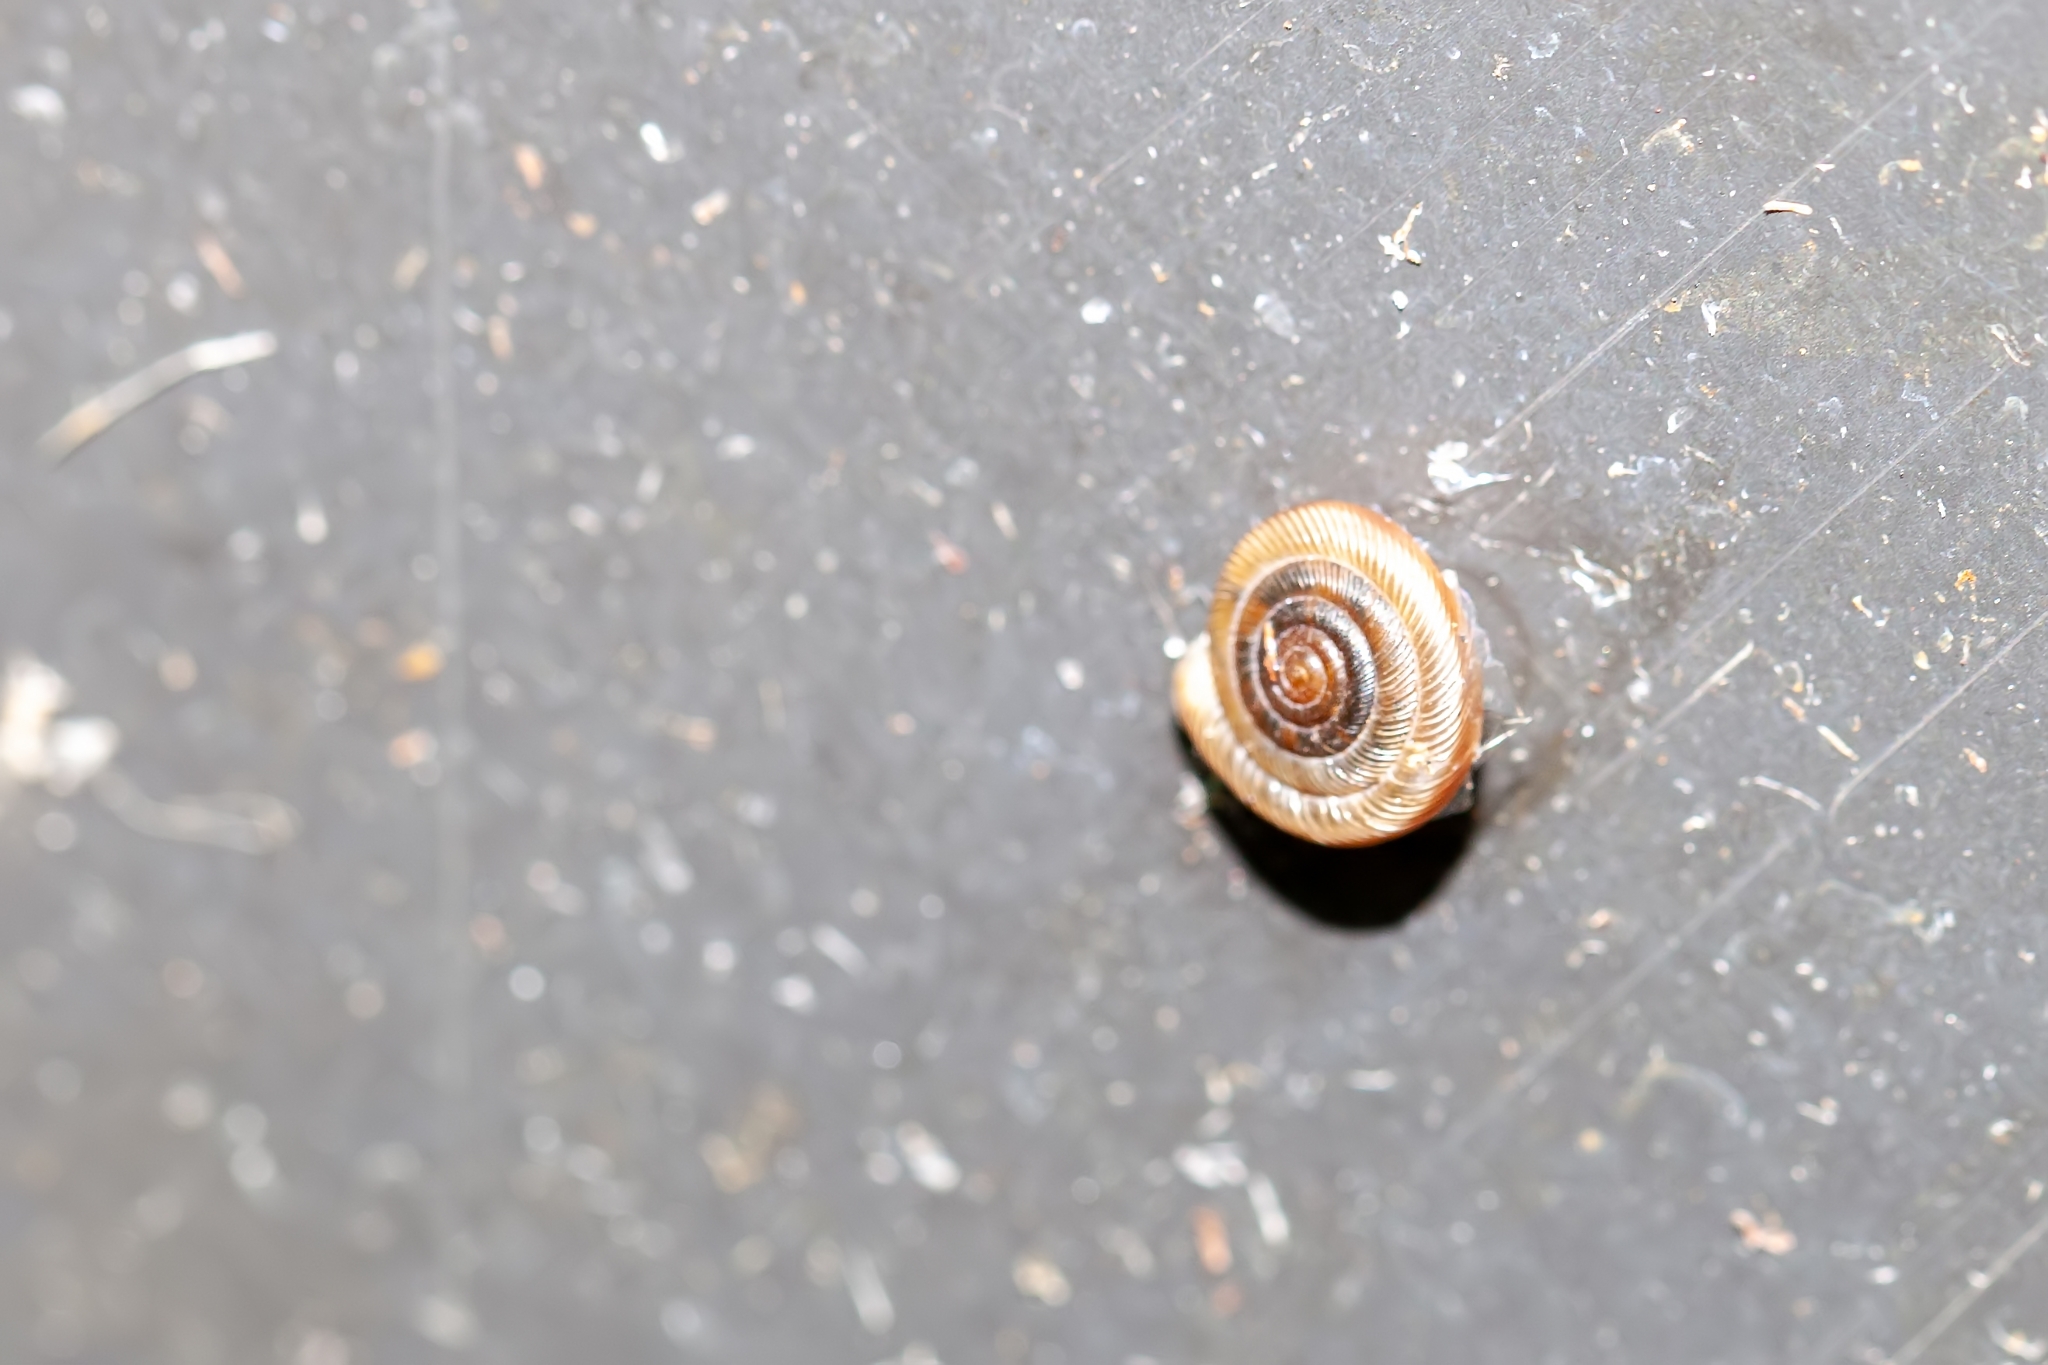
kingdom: Animalia
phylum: Mollusca
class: Gastropoda
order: Stylommatophora
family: Polygyridae
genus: Polygyra
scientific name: Polygyra cereolus
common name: Southern flatcone snail
